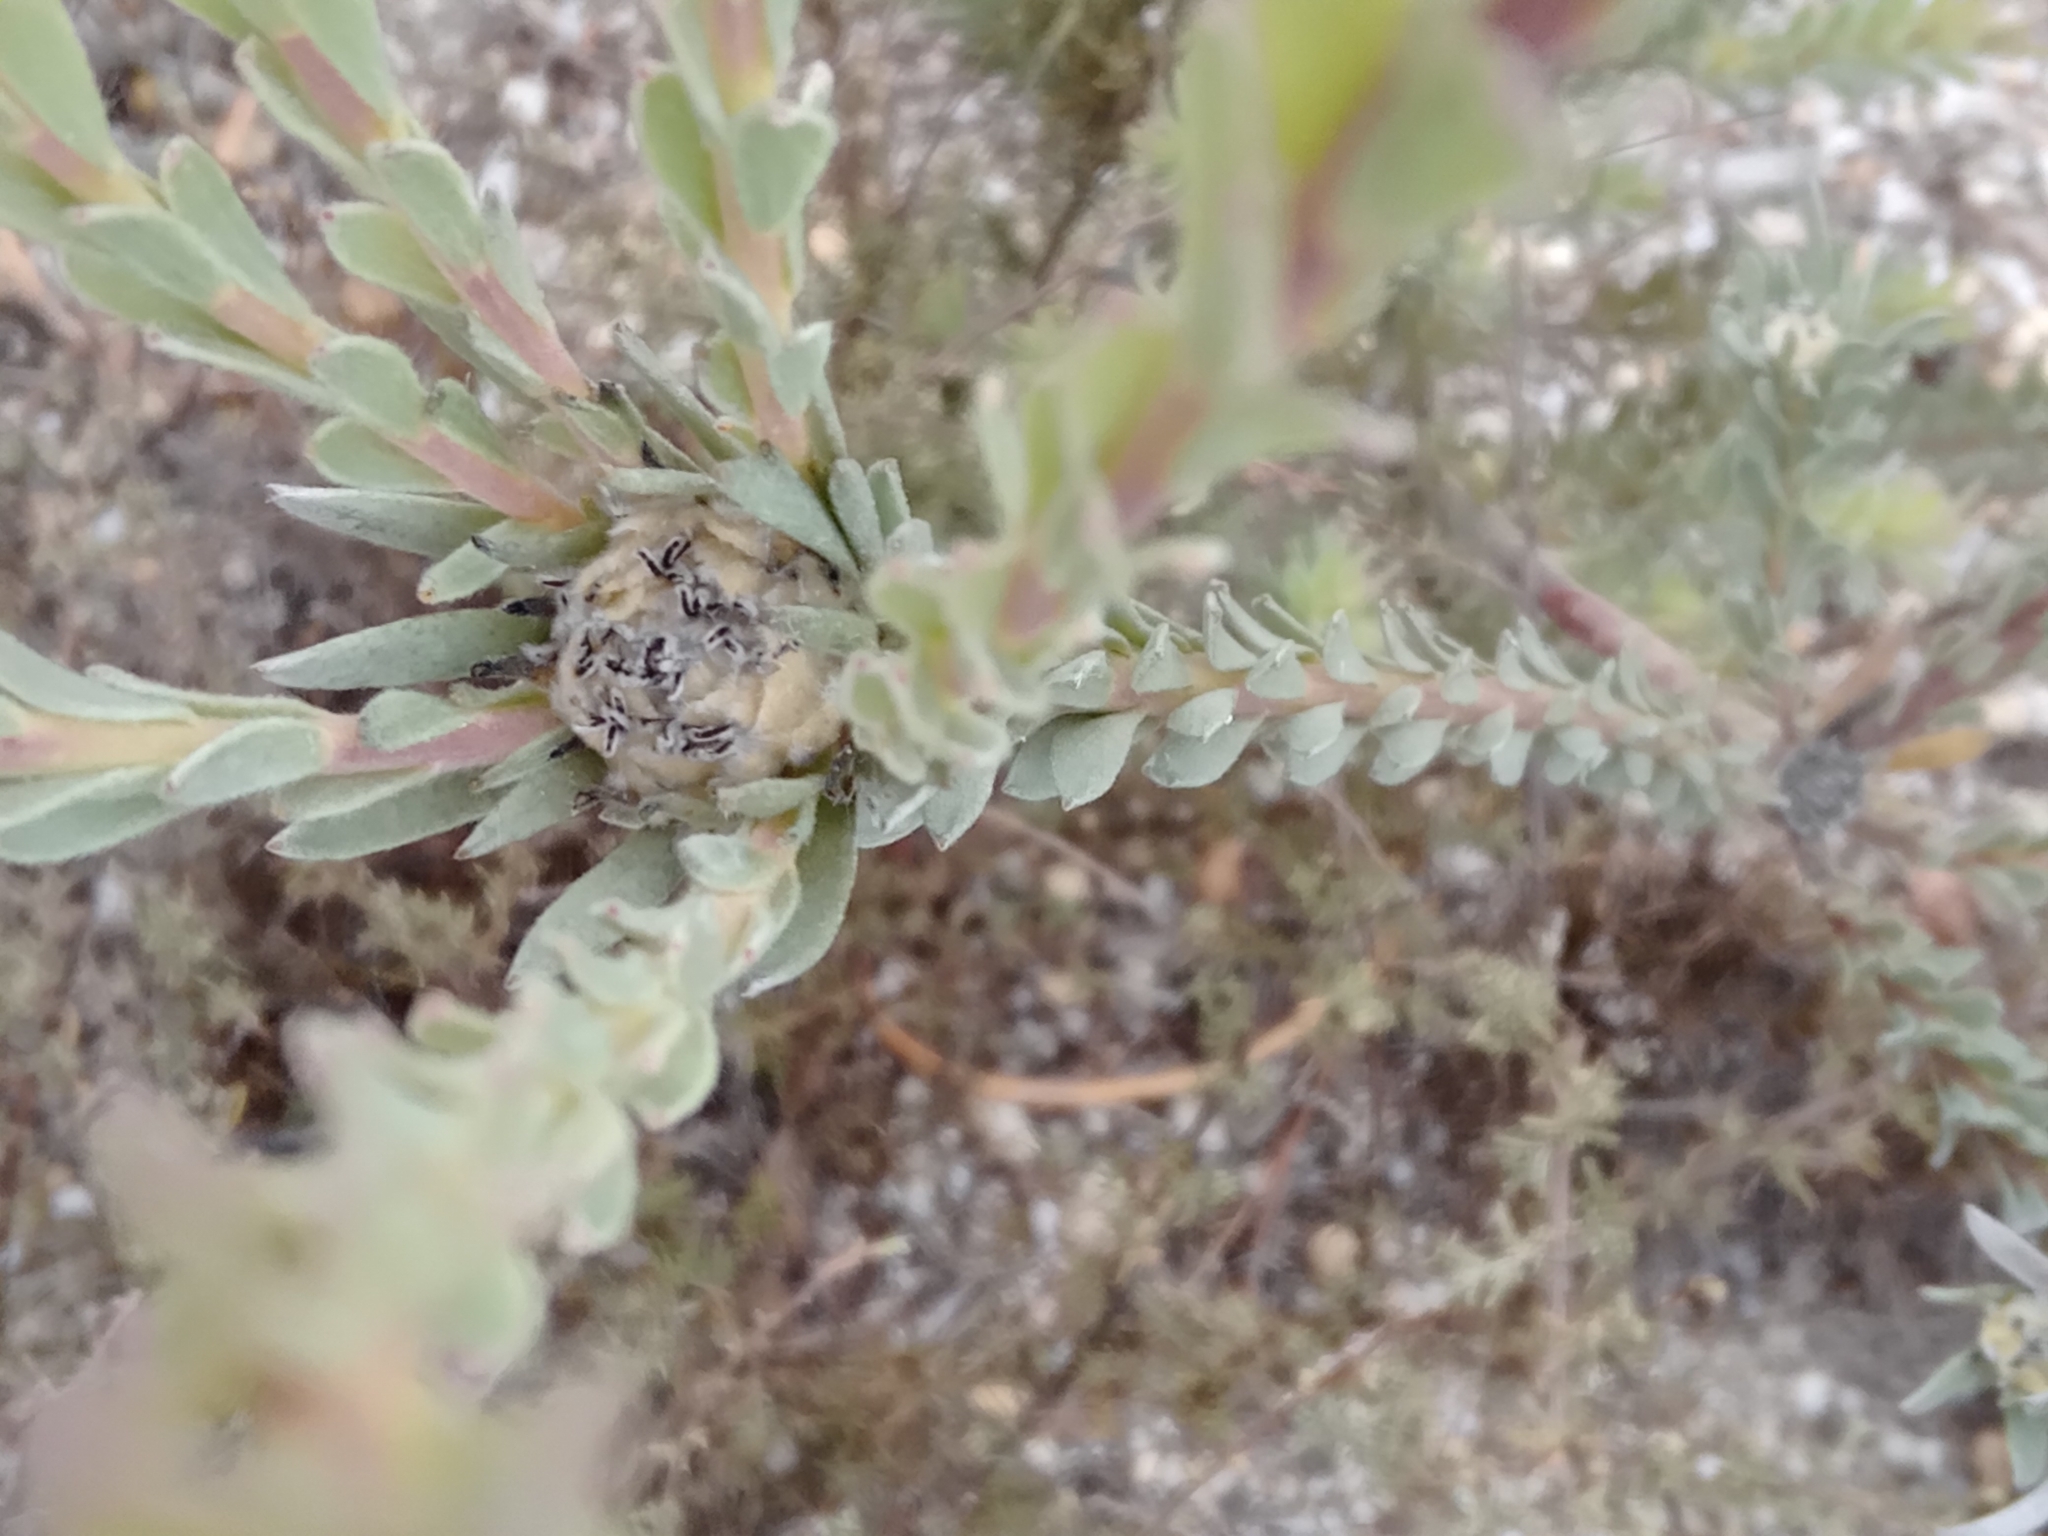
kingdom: Plantae
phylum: Tracheophyta
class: Magnoliopsida
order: Proteales
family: Proteaceae
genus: Leucadendron
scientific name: Leucadendron verticillatum
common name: Klapmuts conebush
